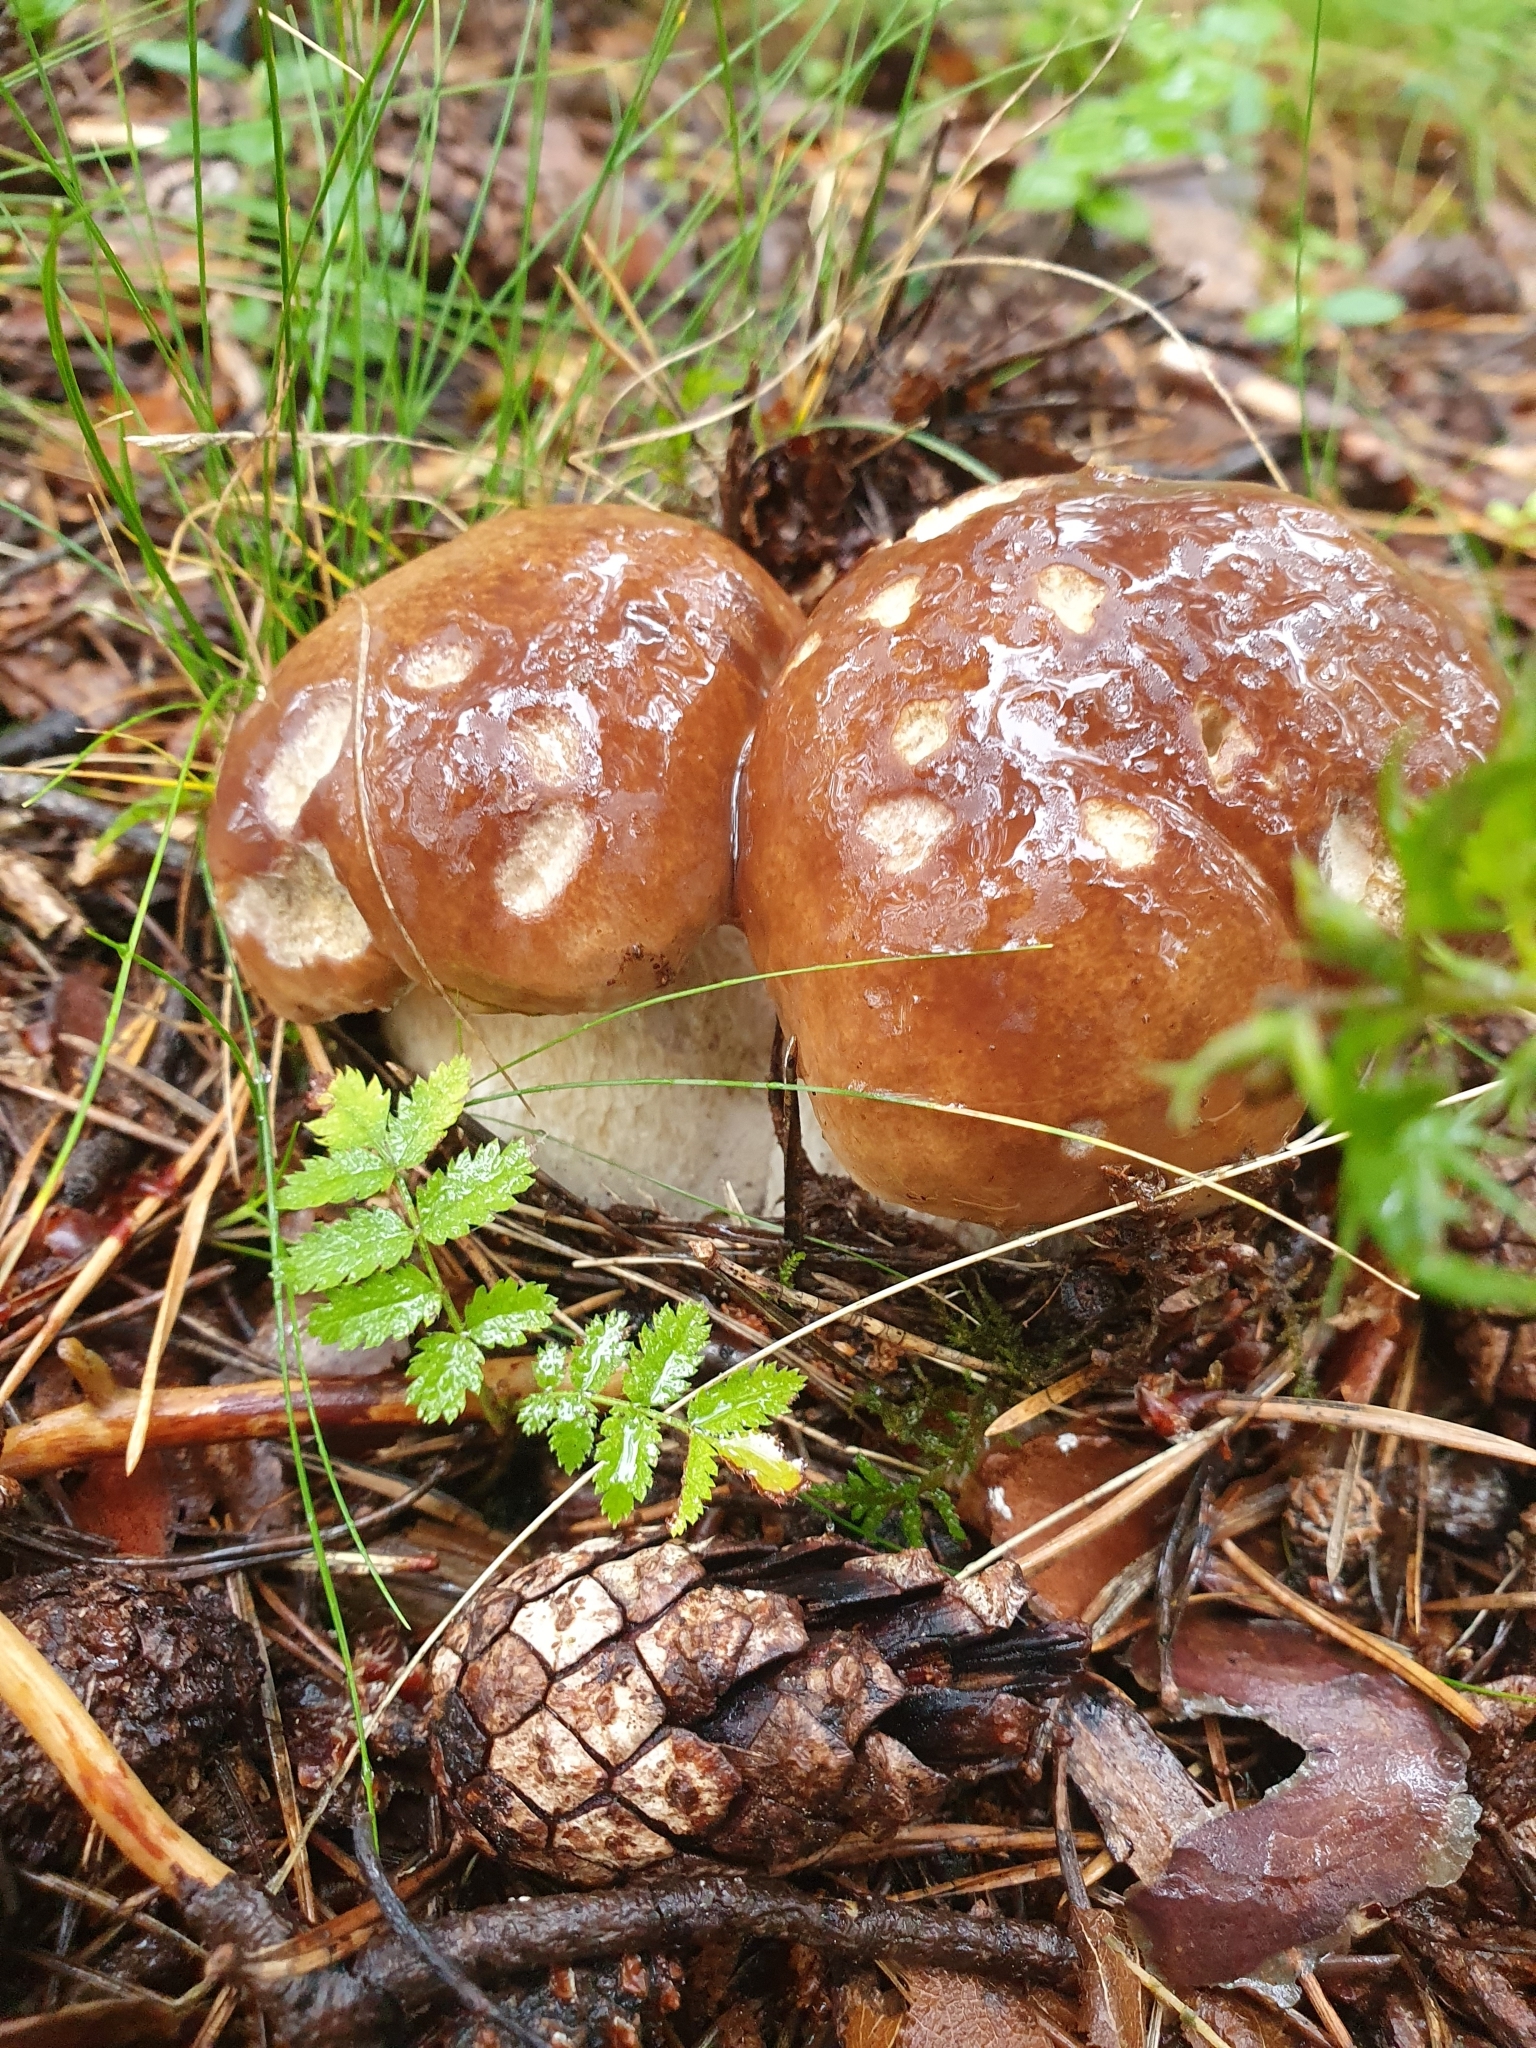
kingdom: Fungi
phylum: Basidiomycota
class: Agaricomycetes
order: Boletales
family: Boletaceae
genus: Boletus
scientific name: Boletus edulis
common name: Cep
